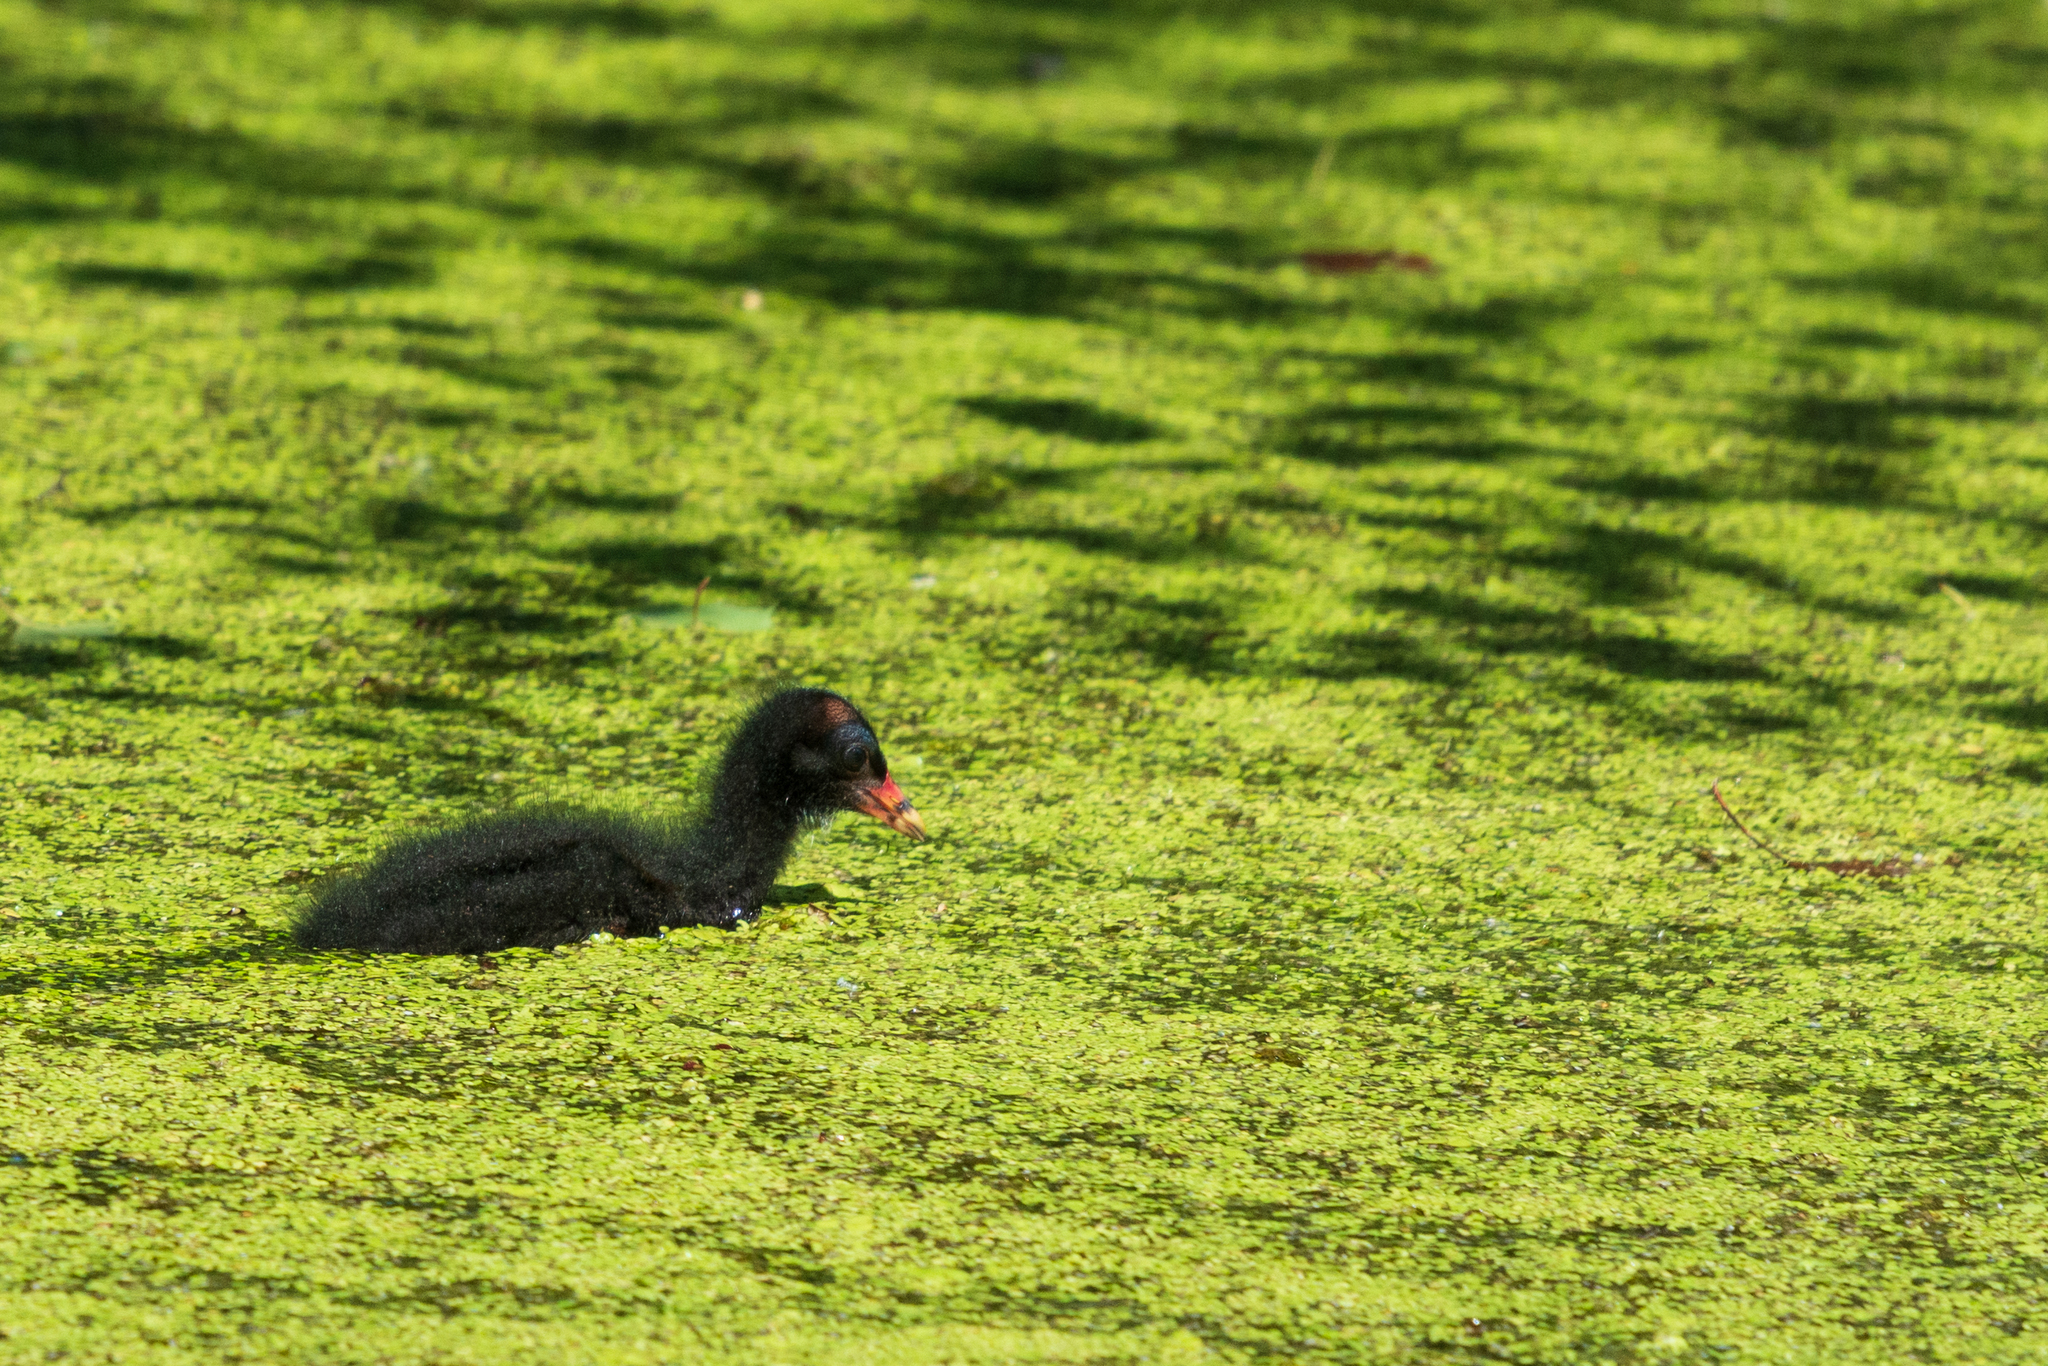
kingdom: Animalia
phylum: Chordata
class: Aves
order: Gruiformes
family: Rallidae
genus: Gallinula
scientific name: Gallinula chloropus
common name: Common moorhen
